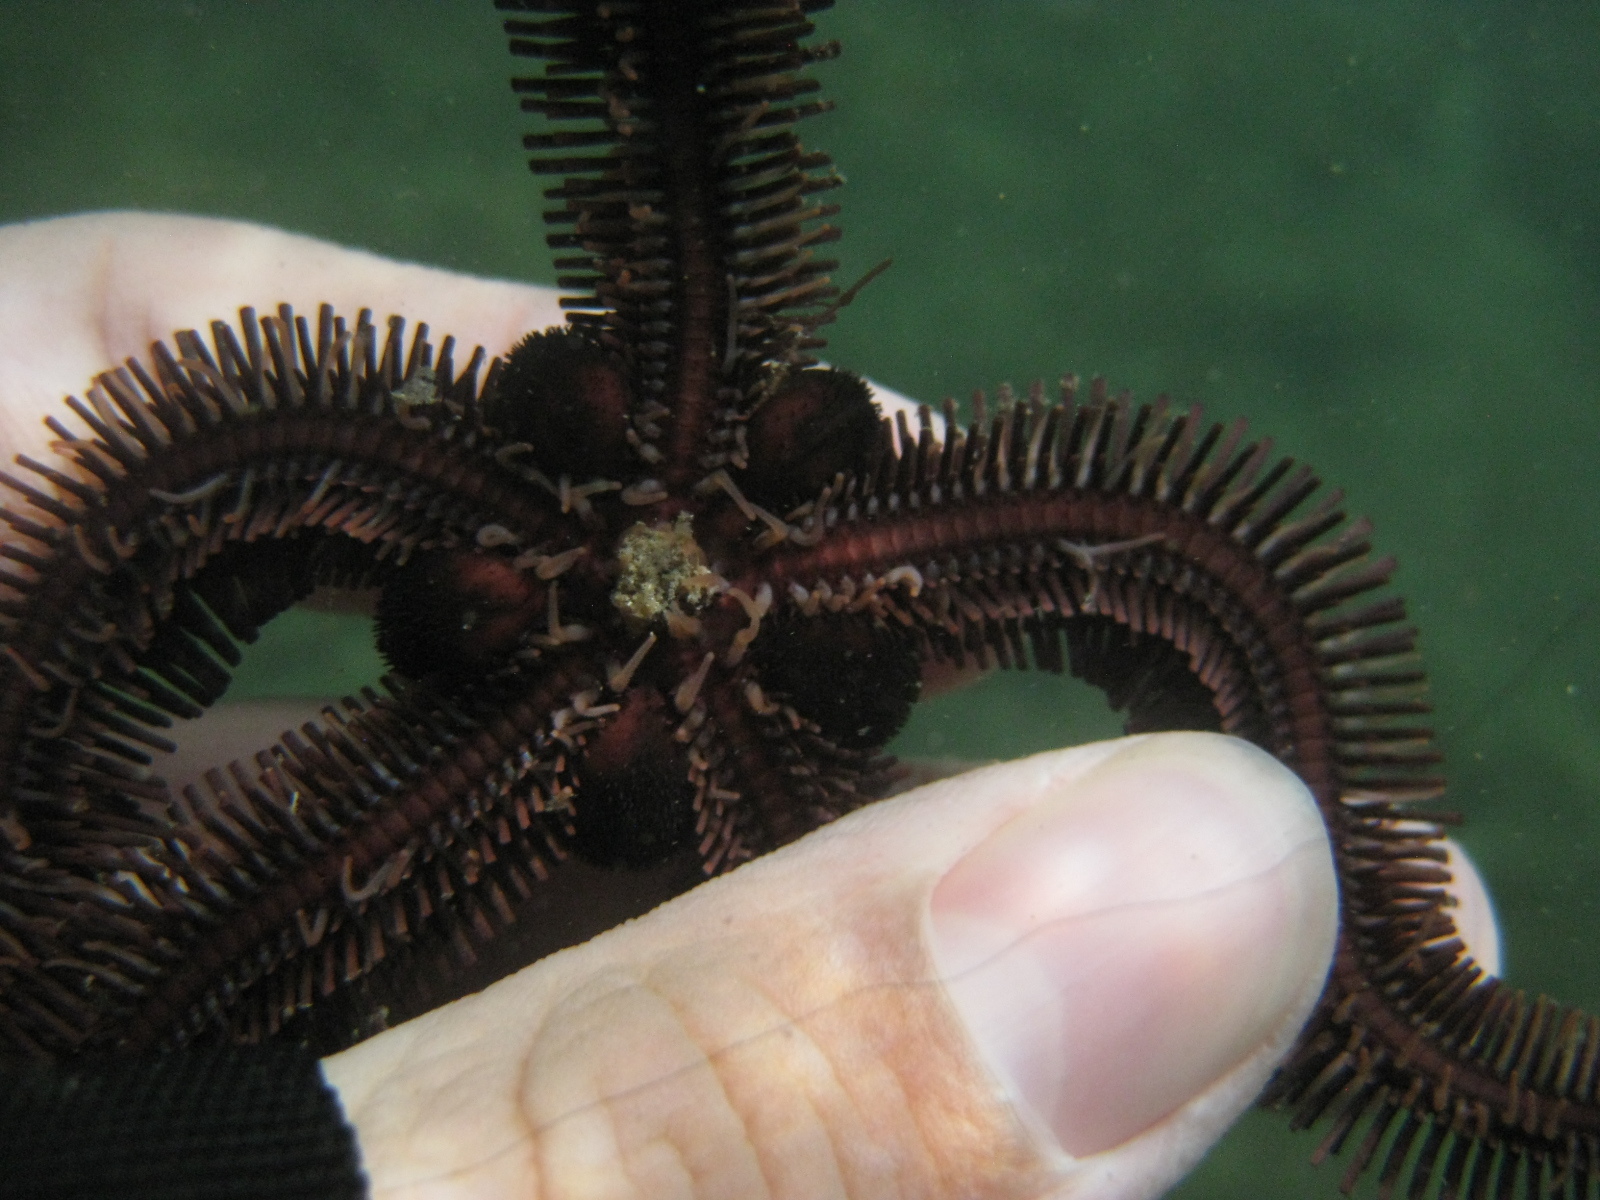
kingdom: Animalia
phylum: Echinodermata
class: Ophiuroidea
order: Ophiacanthida
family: Ophiopteridae
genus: Ophiopteris
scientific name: Ophiopteris antipodum
